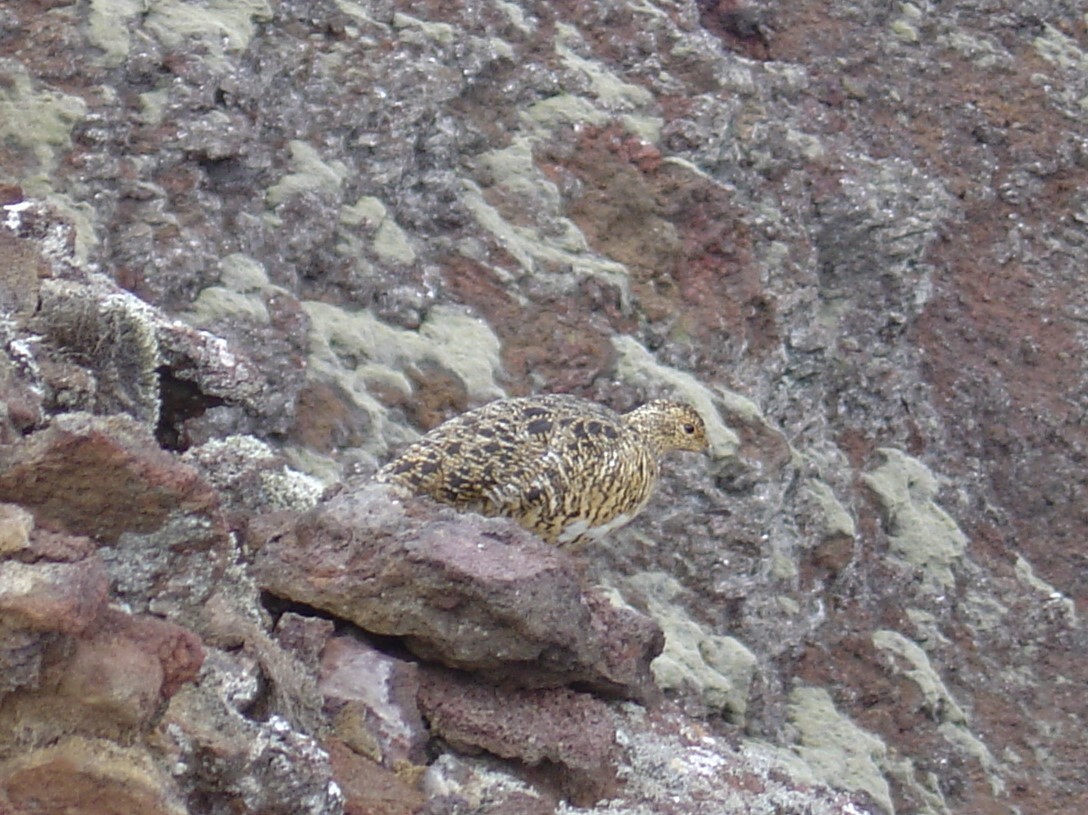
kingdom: Animalia
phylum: Chordata
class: Aves
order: Galliformes
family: Phasianidae
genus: Lagopus
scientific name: Lagopus muta
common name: Rock ptarmigan
